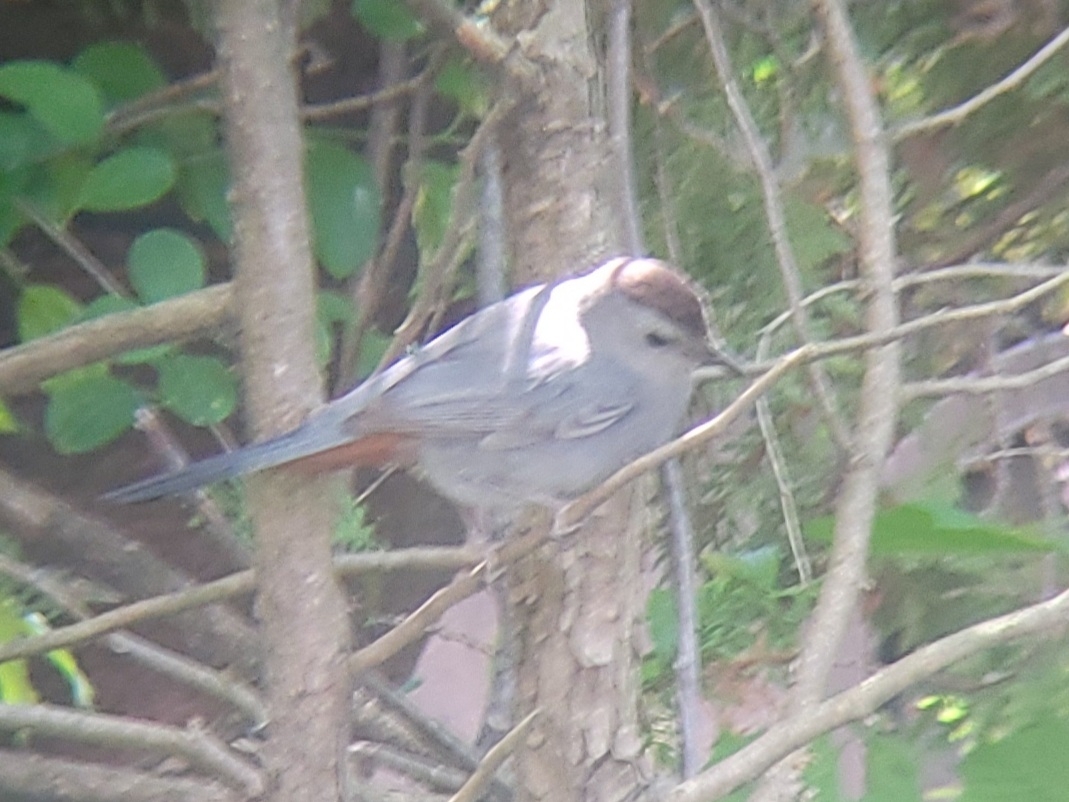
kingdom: Animalia
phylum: Chordata
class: Aves
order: Passeriformes
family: Mimidae
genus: Dumetella
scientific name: Dumetella carolinensis
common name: Gray catbird
